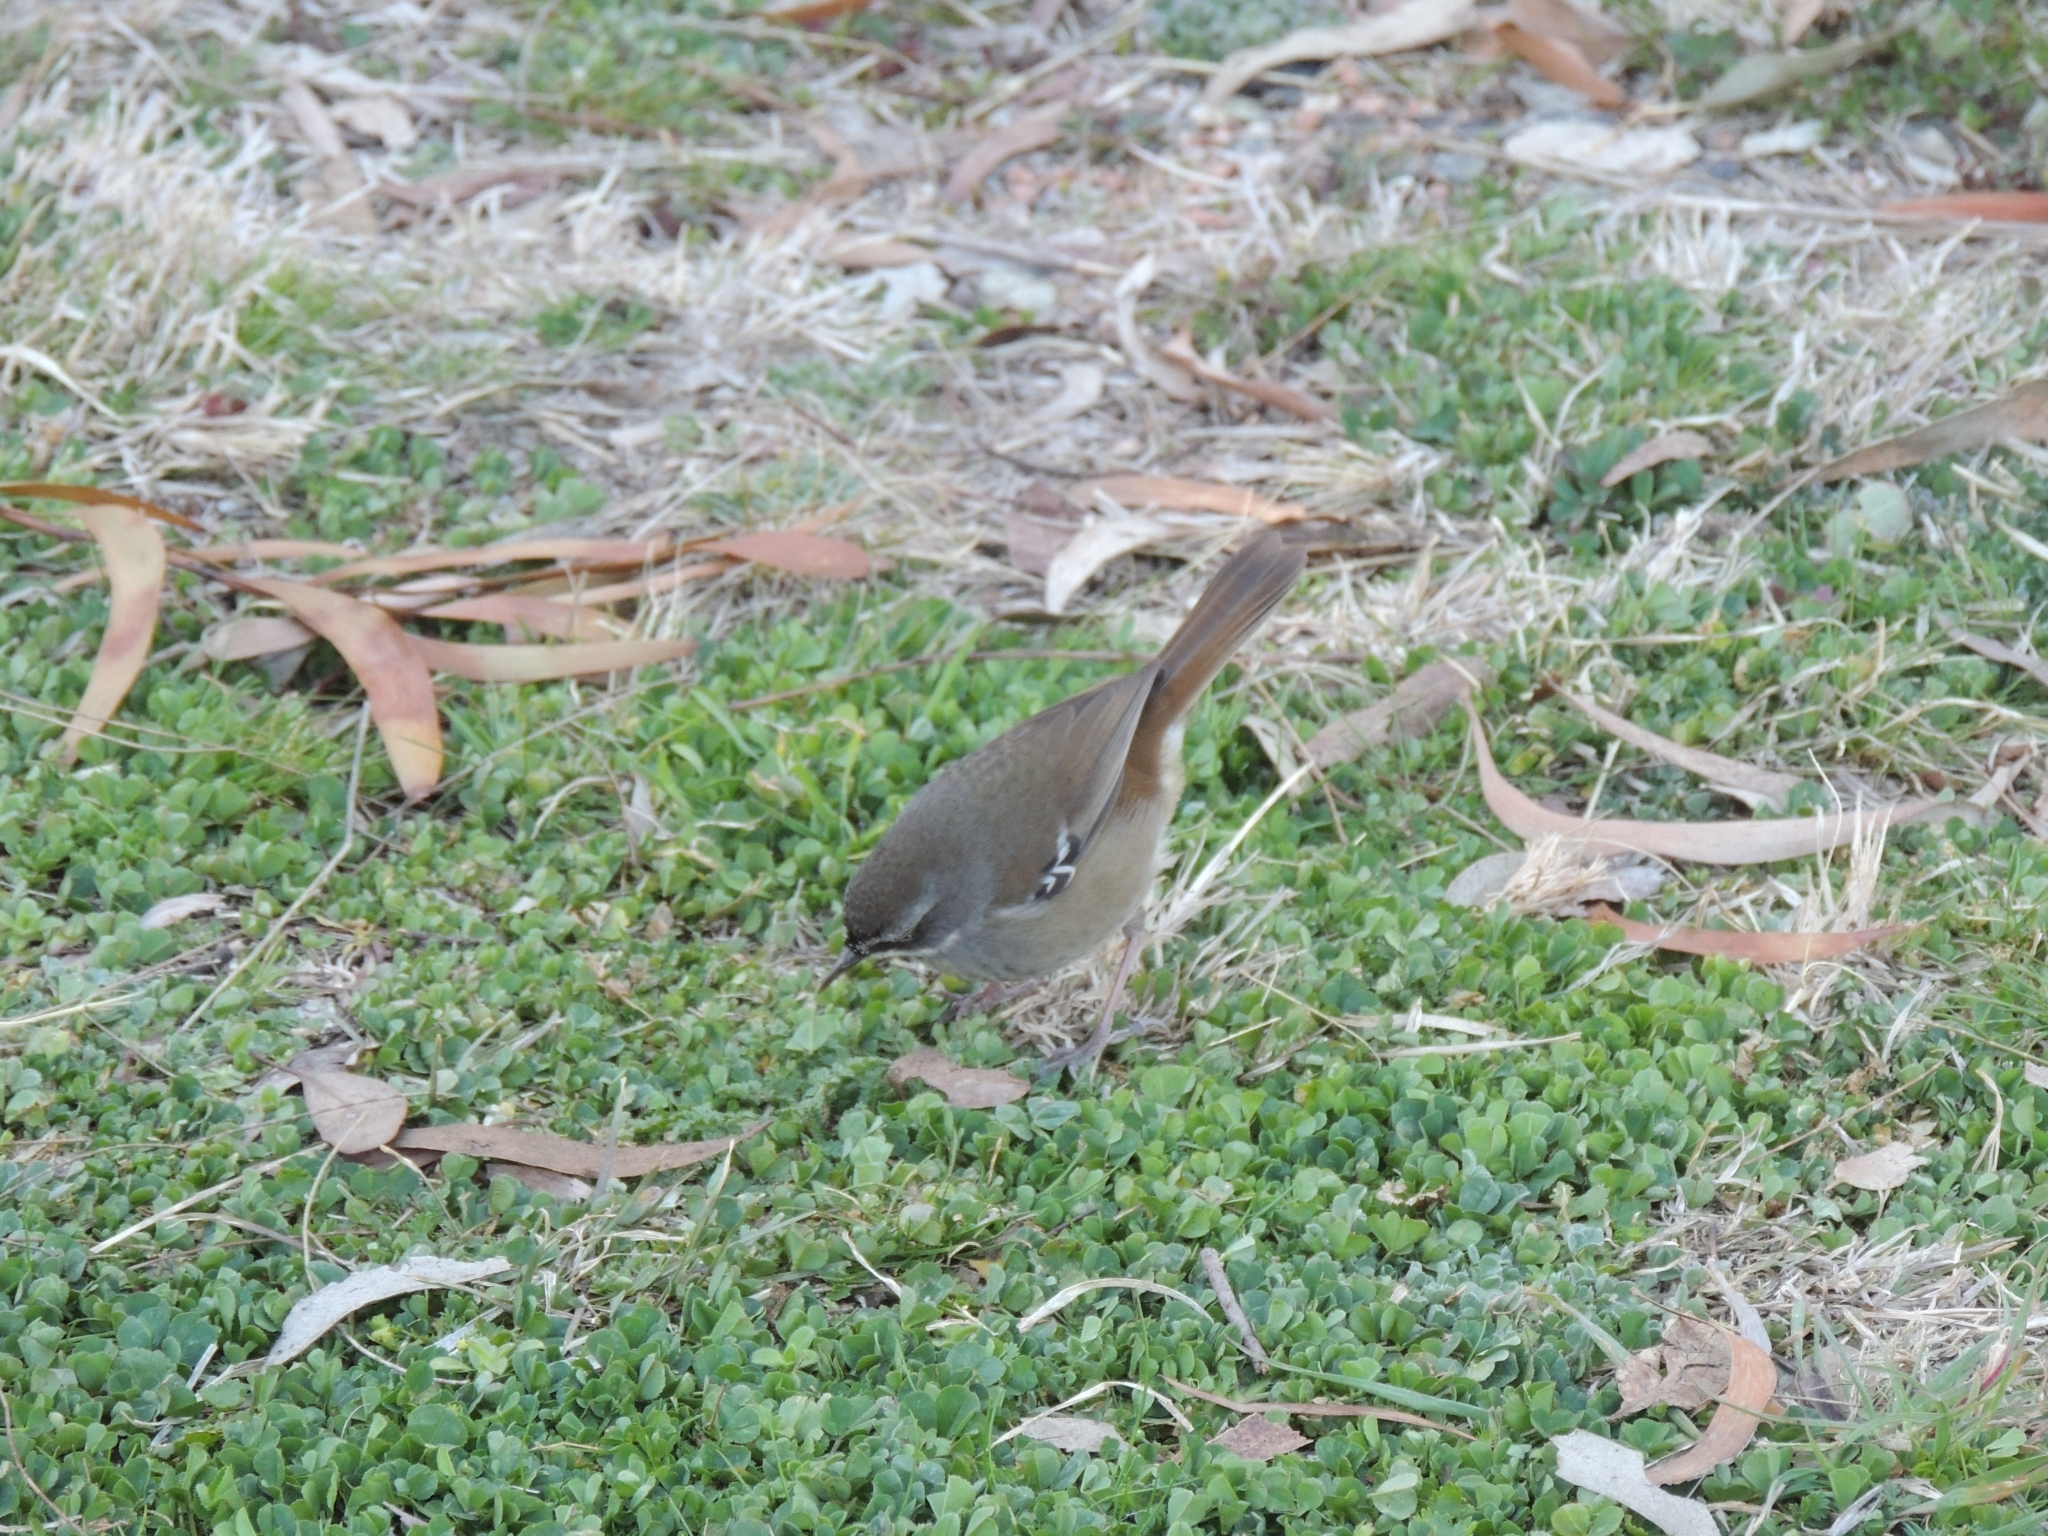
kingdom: Animalia
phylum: Chordata
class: Aves
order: Passeriformes
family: Acanthizidae
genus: Sericornis
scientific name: Sericornis frontalis
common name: White-browed scrubwren
